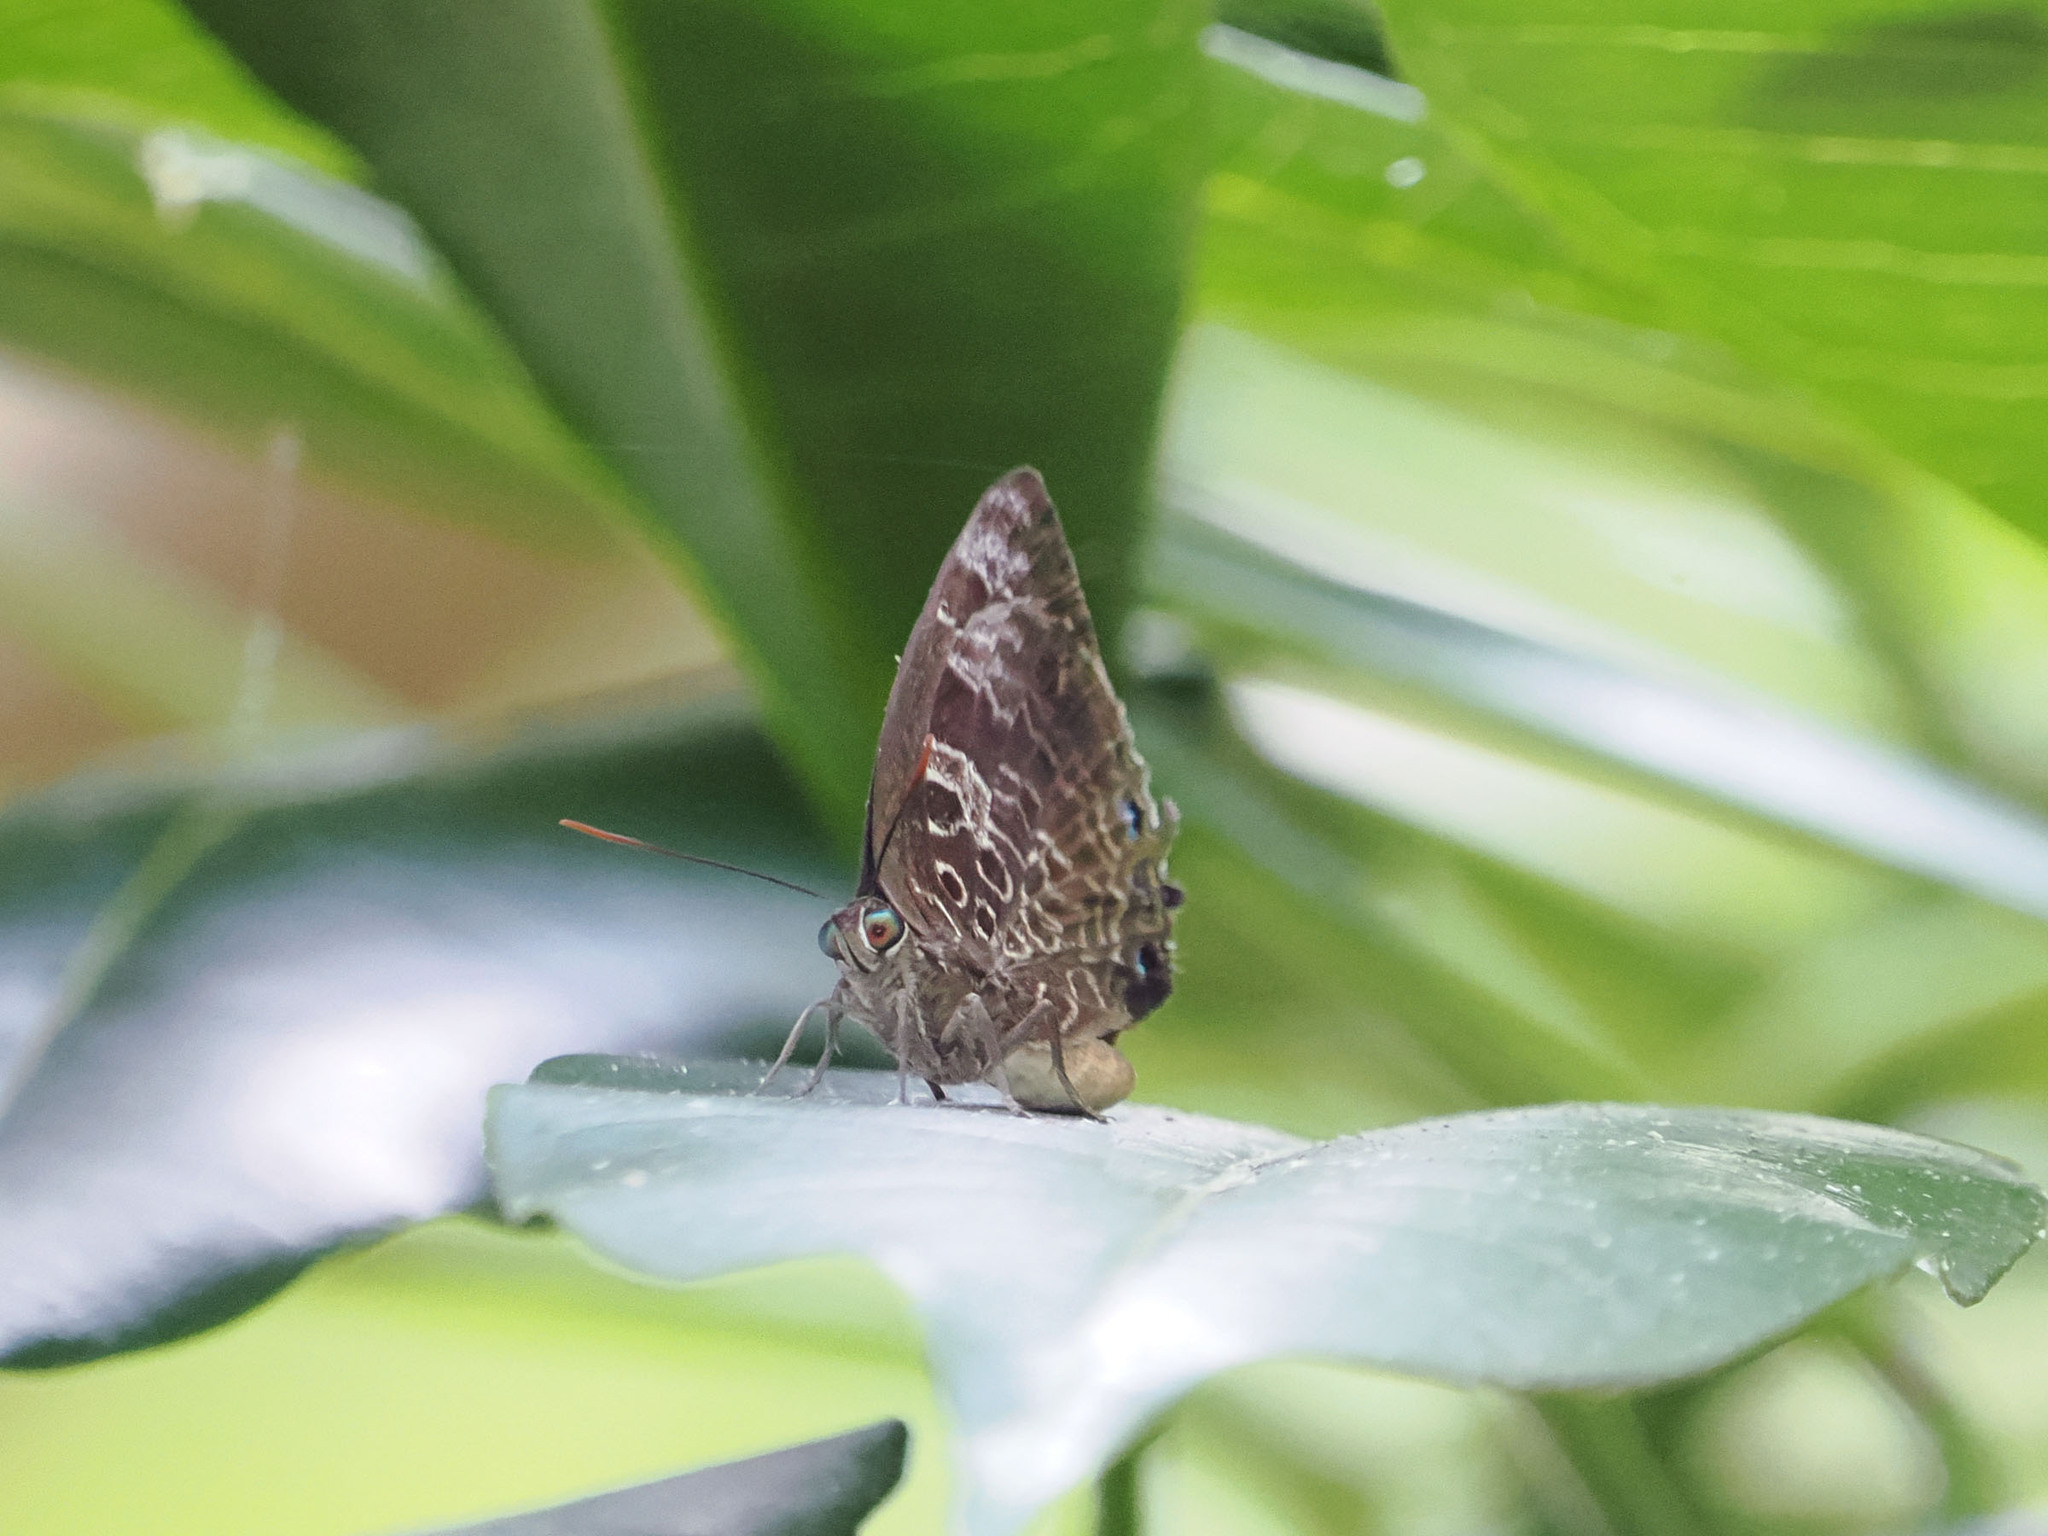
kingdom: Animalia
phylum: Arthropoda
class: Insecta
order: Lepidoptera
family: Lycaenidae
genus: Arhopala
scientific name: Arhopala centaurus
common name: Dull oak-blue
